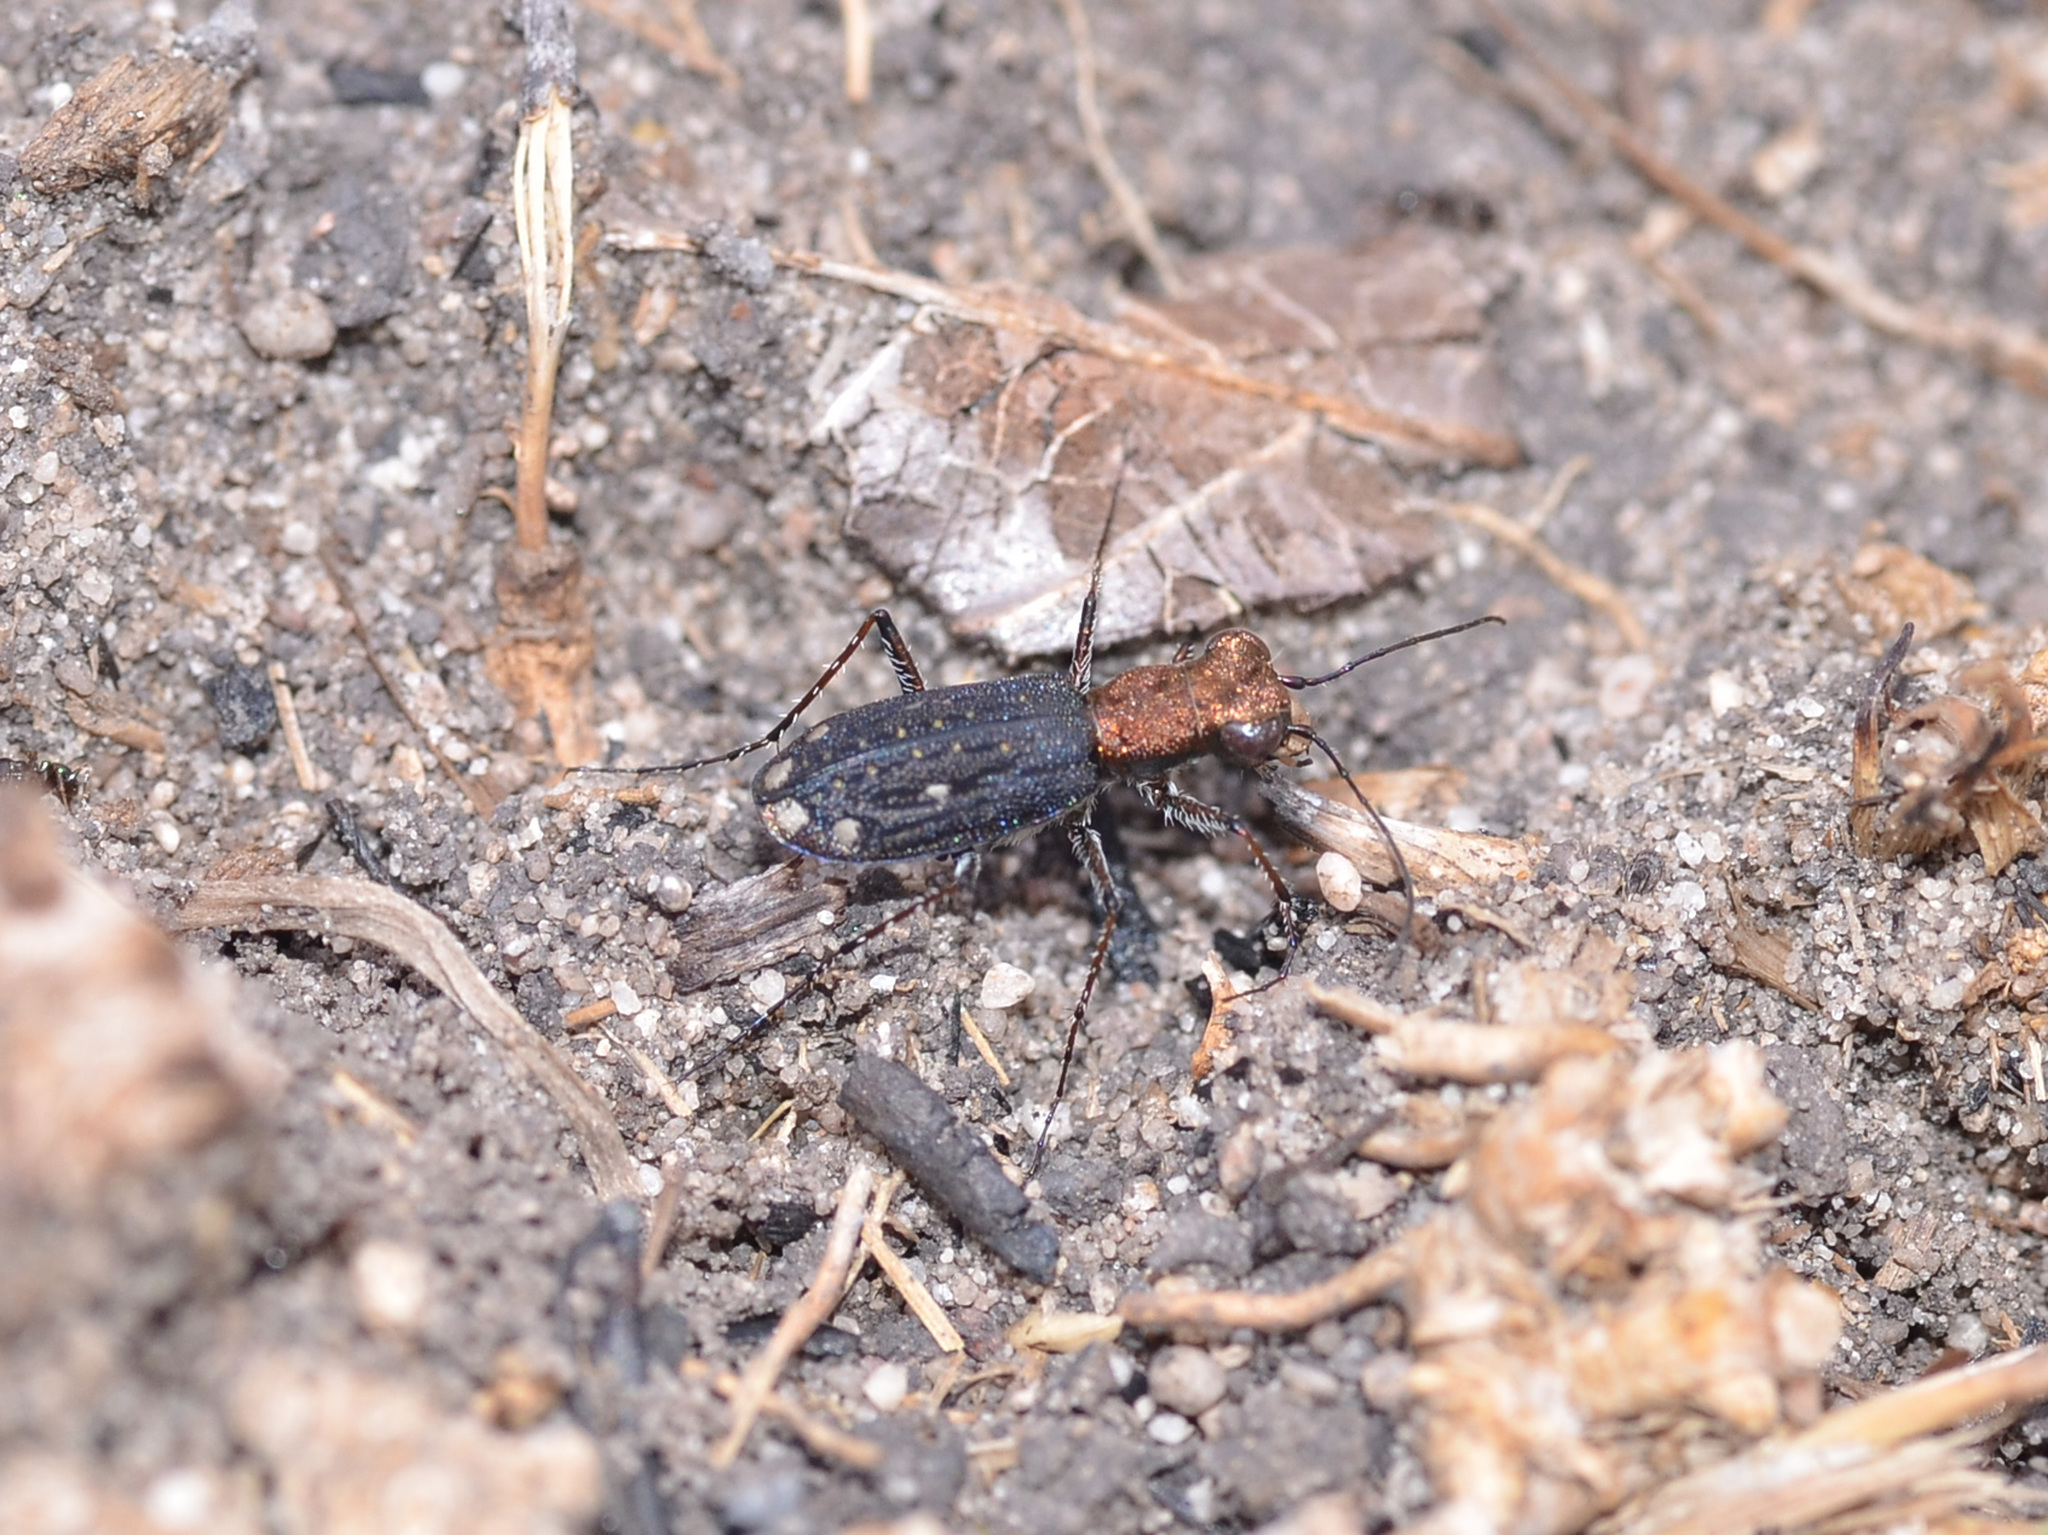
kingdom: Animalia
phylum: Arthropoda
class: Insecta
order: Coleoptera
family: Carabidae
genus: Prothymidia
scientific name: Prothymidia angusticollis
